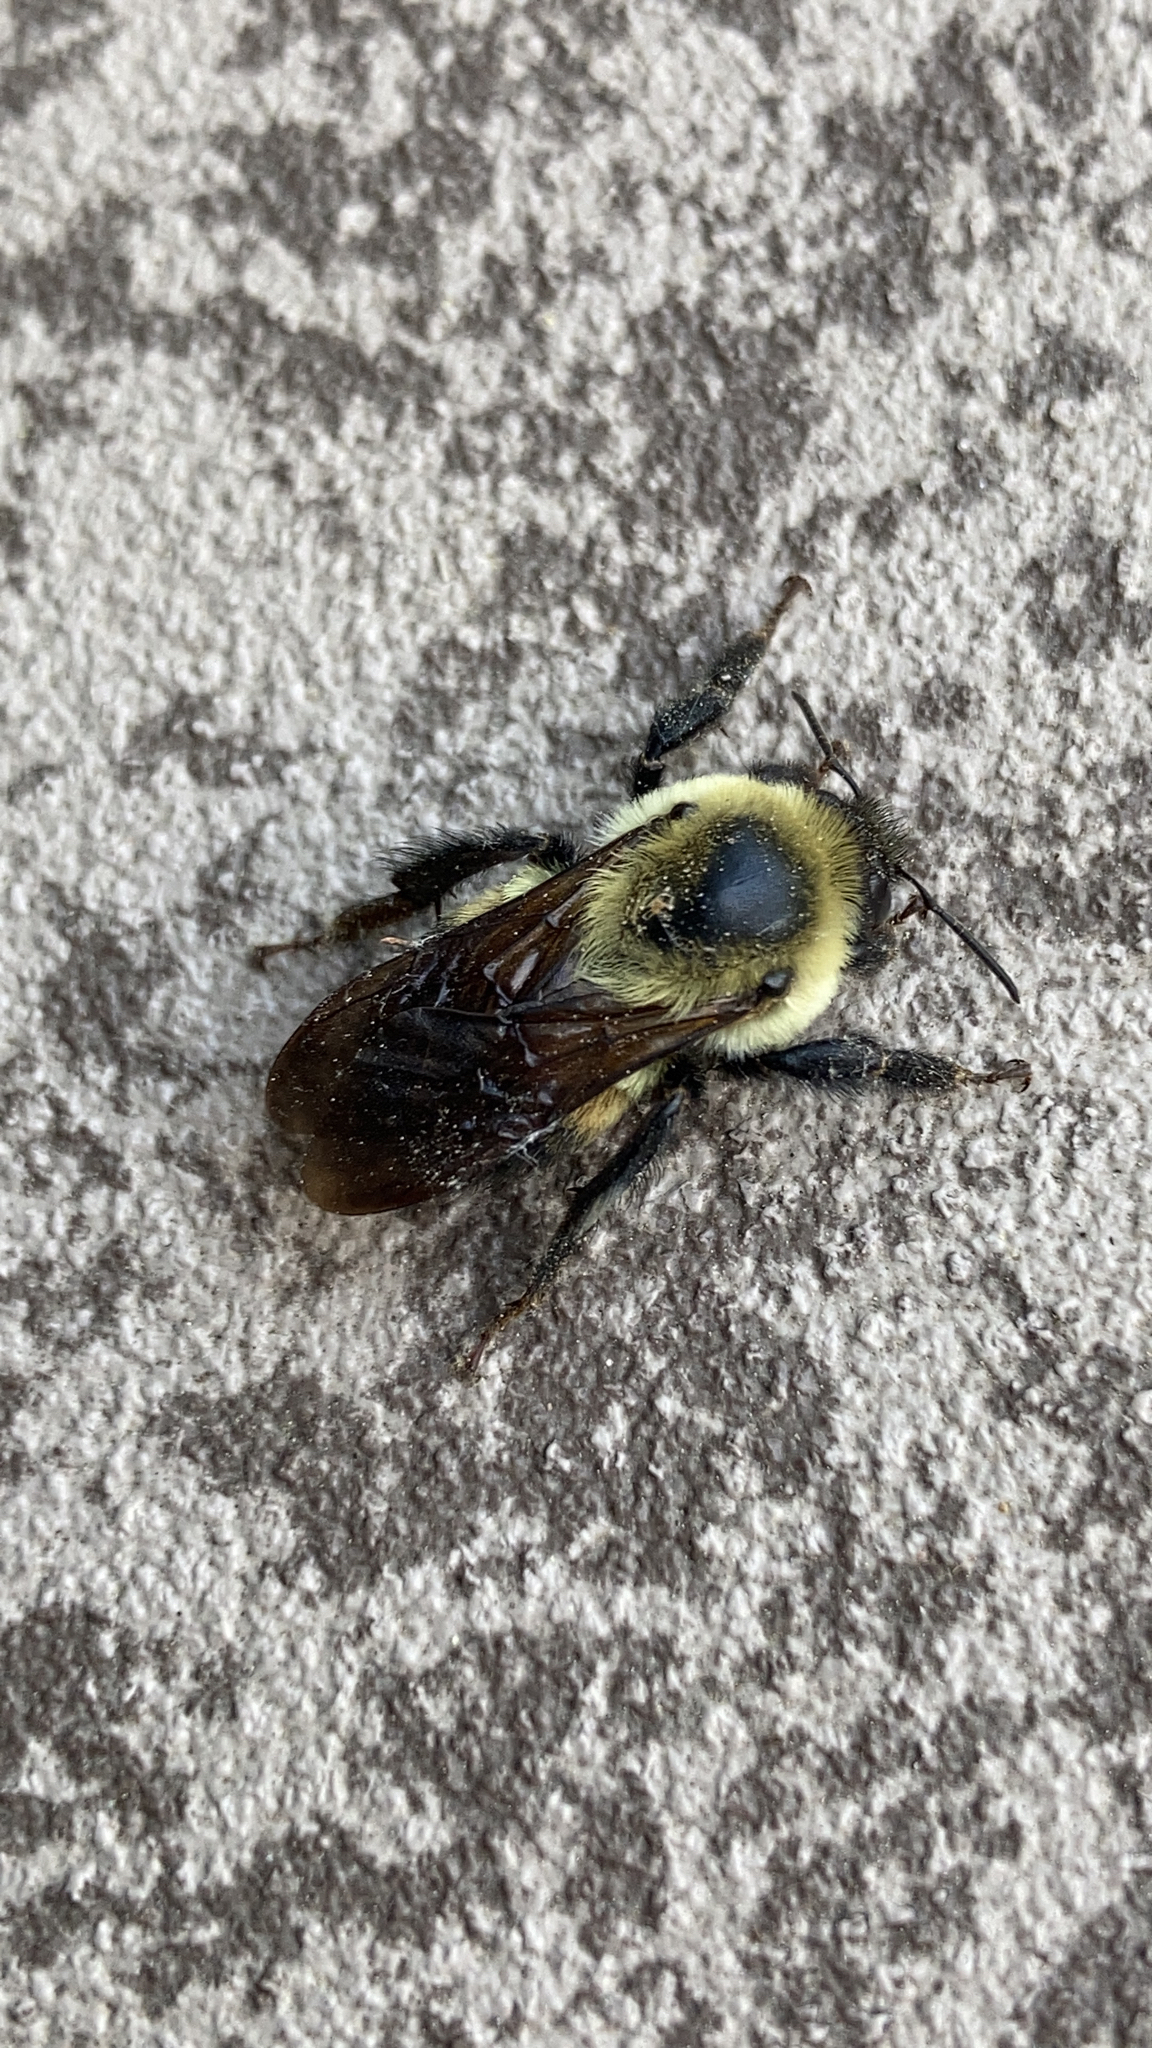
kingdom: Animalia
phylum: Arthropoda
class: Insecta
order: Hymenoptera
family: Apidae
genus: Bombus
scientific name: Bombus griseocollis
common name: Brown-belted bumble bee
